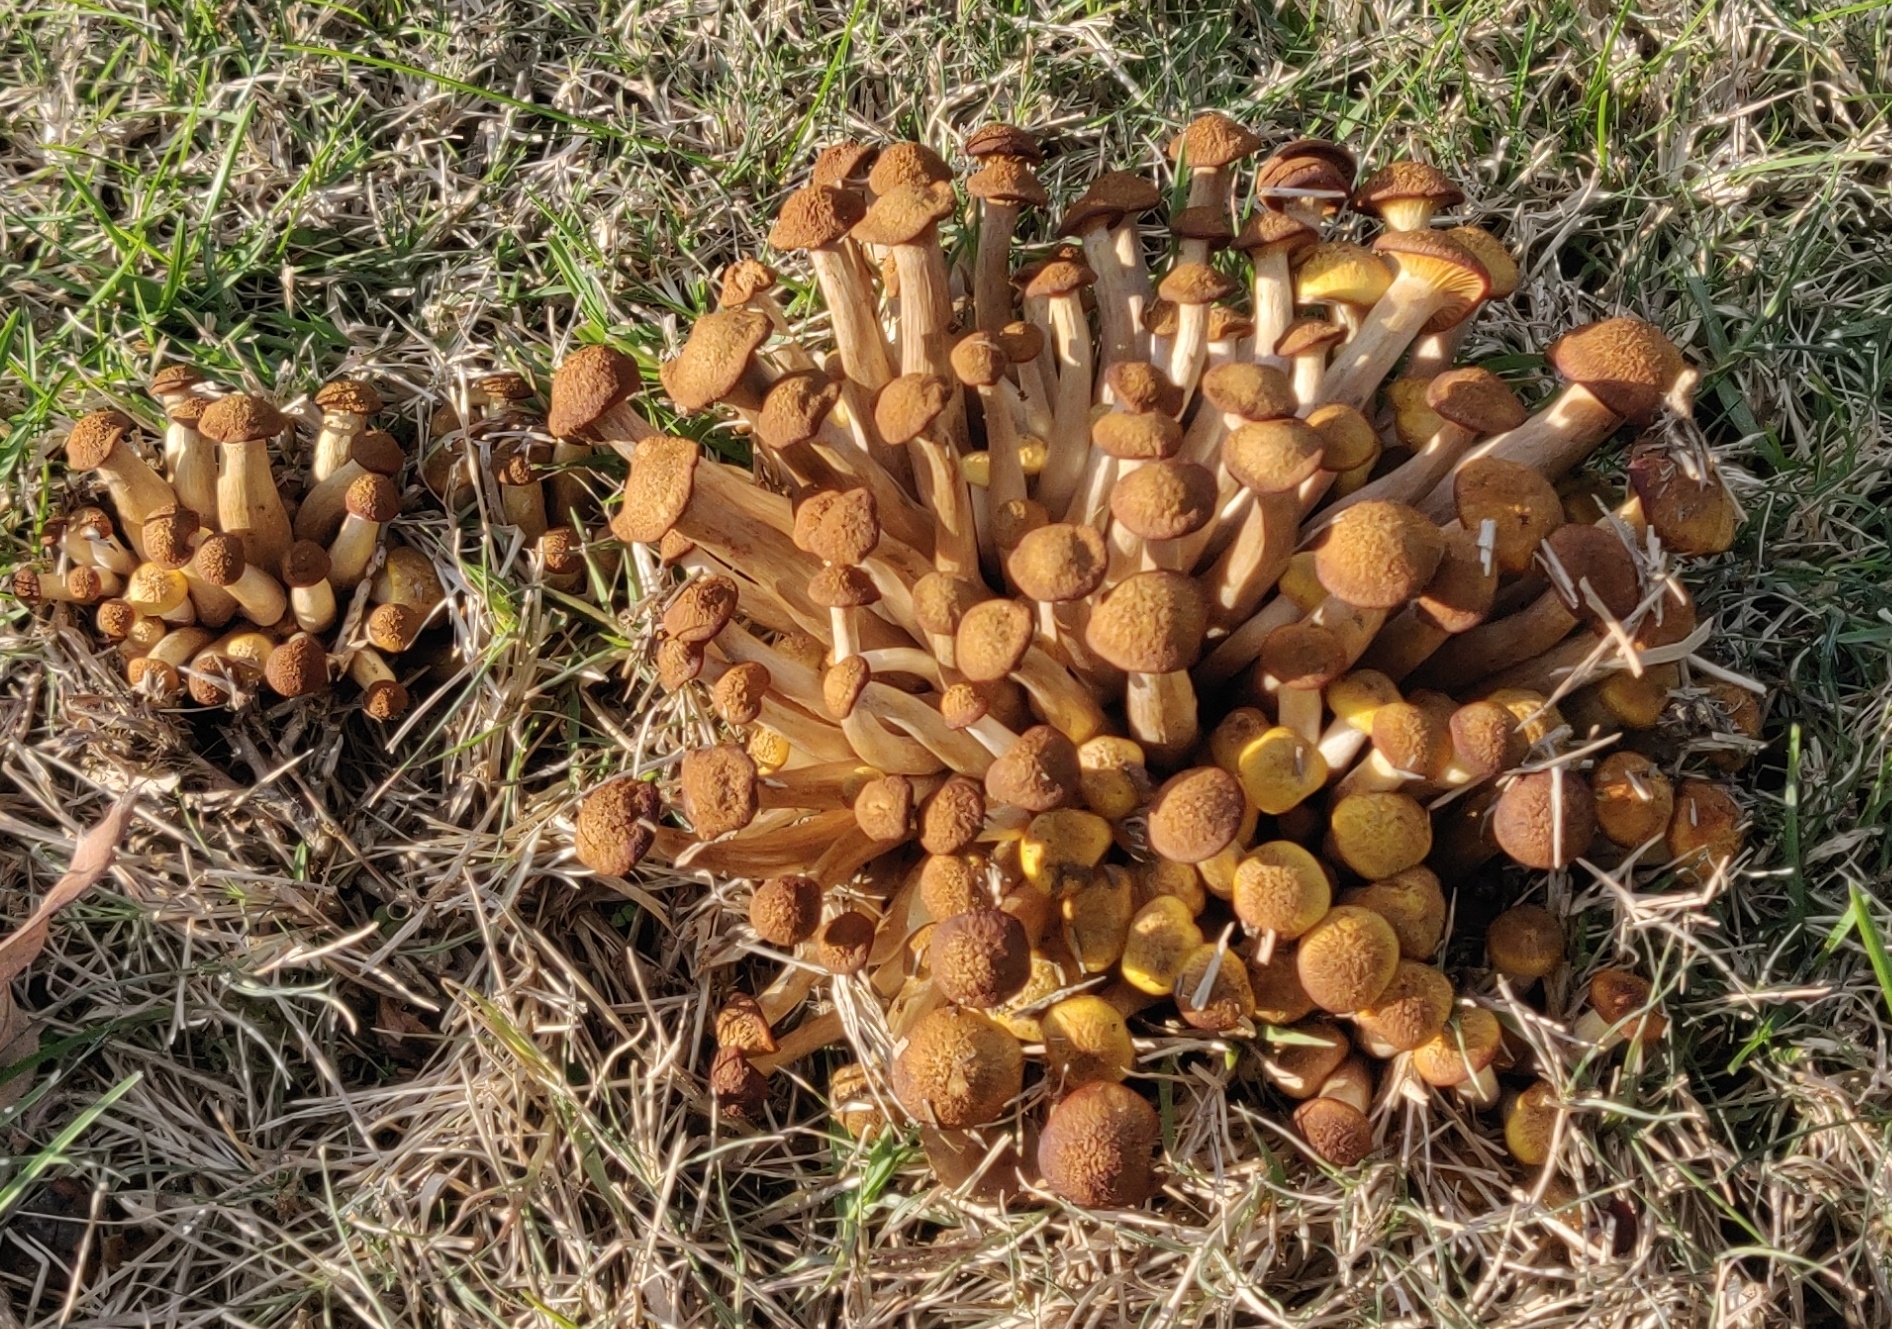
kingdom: Fungi
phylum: Basidiomycota
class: Agaricomycetes
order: Agaricales
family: Physalacriaceae
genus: Desarmillaria
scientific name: Desarmillaria caespitosa
